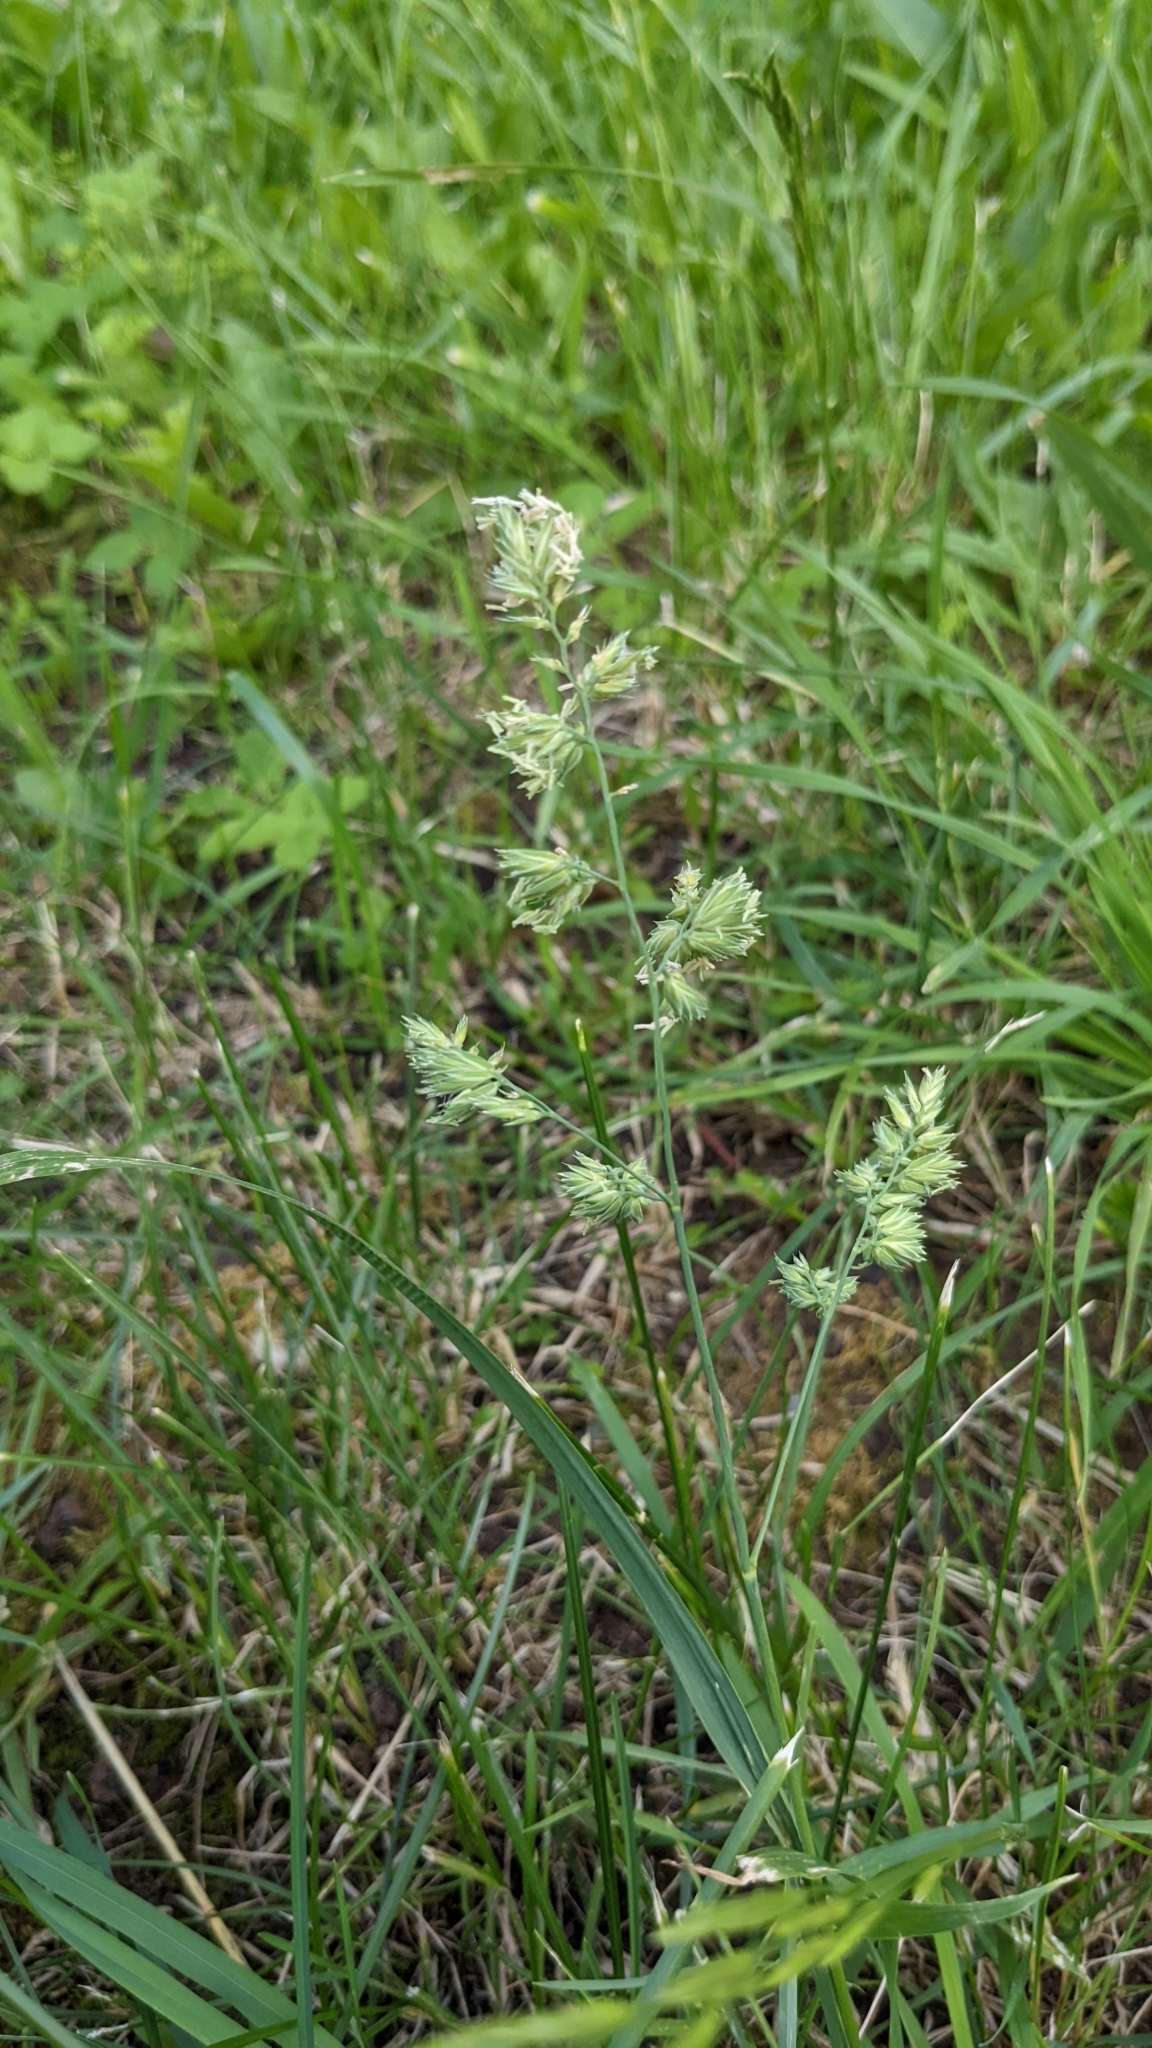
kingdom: Plantae
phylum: Tracheophyta
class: Liliopsida
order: Poales
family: Poaceae
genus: Dactylis
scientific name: Dactylis glomerata
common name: Orchardgrass
